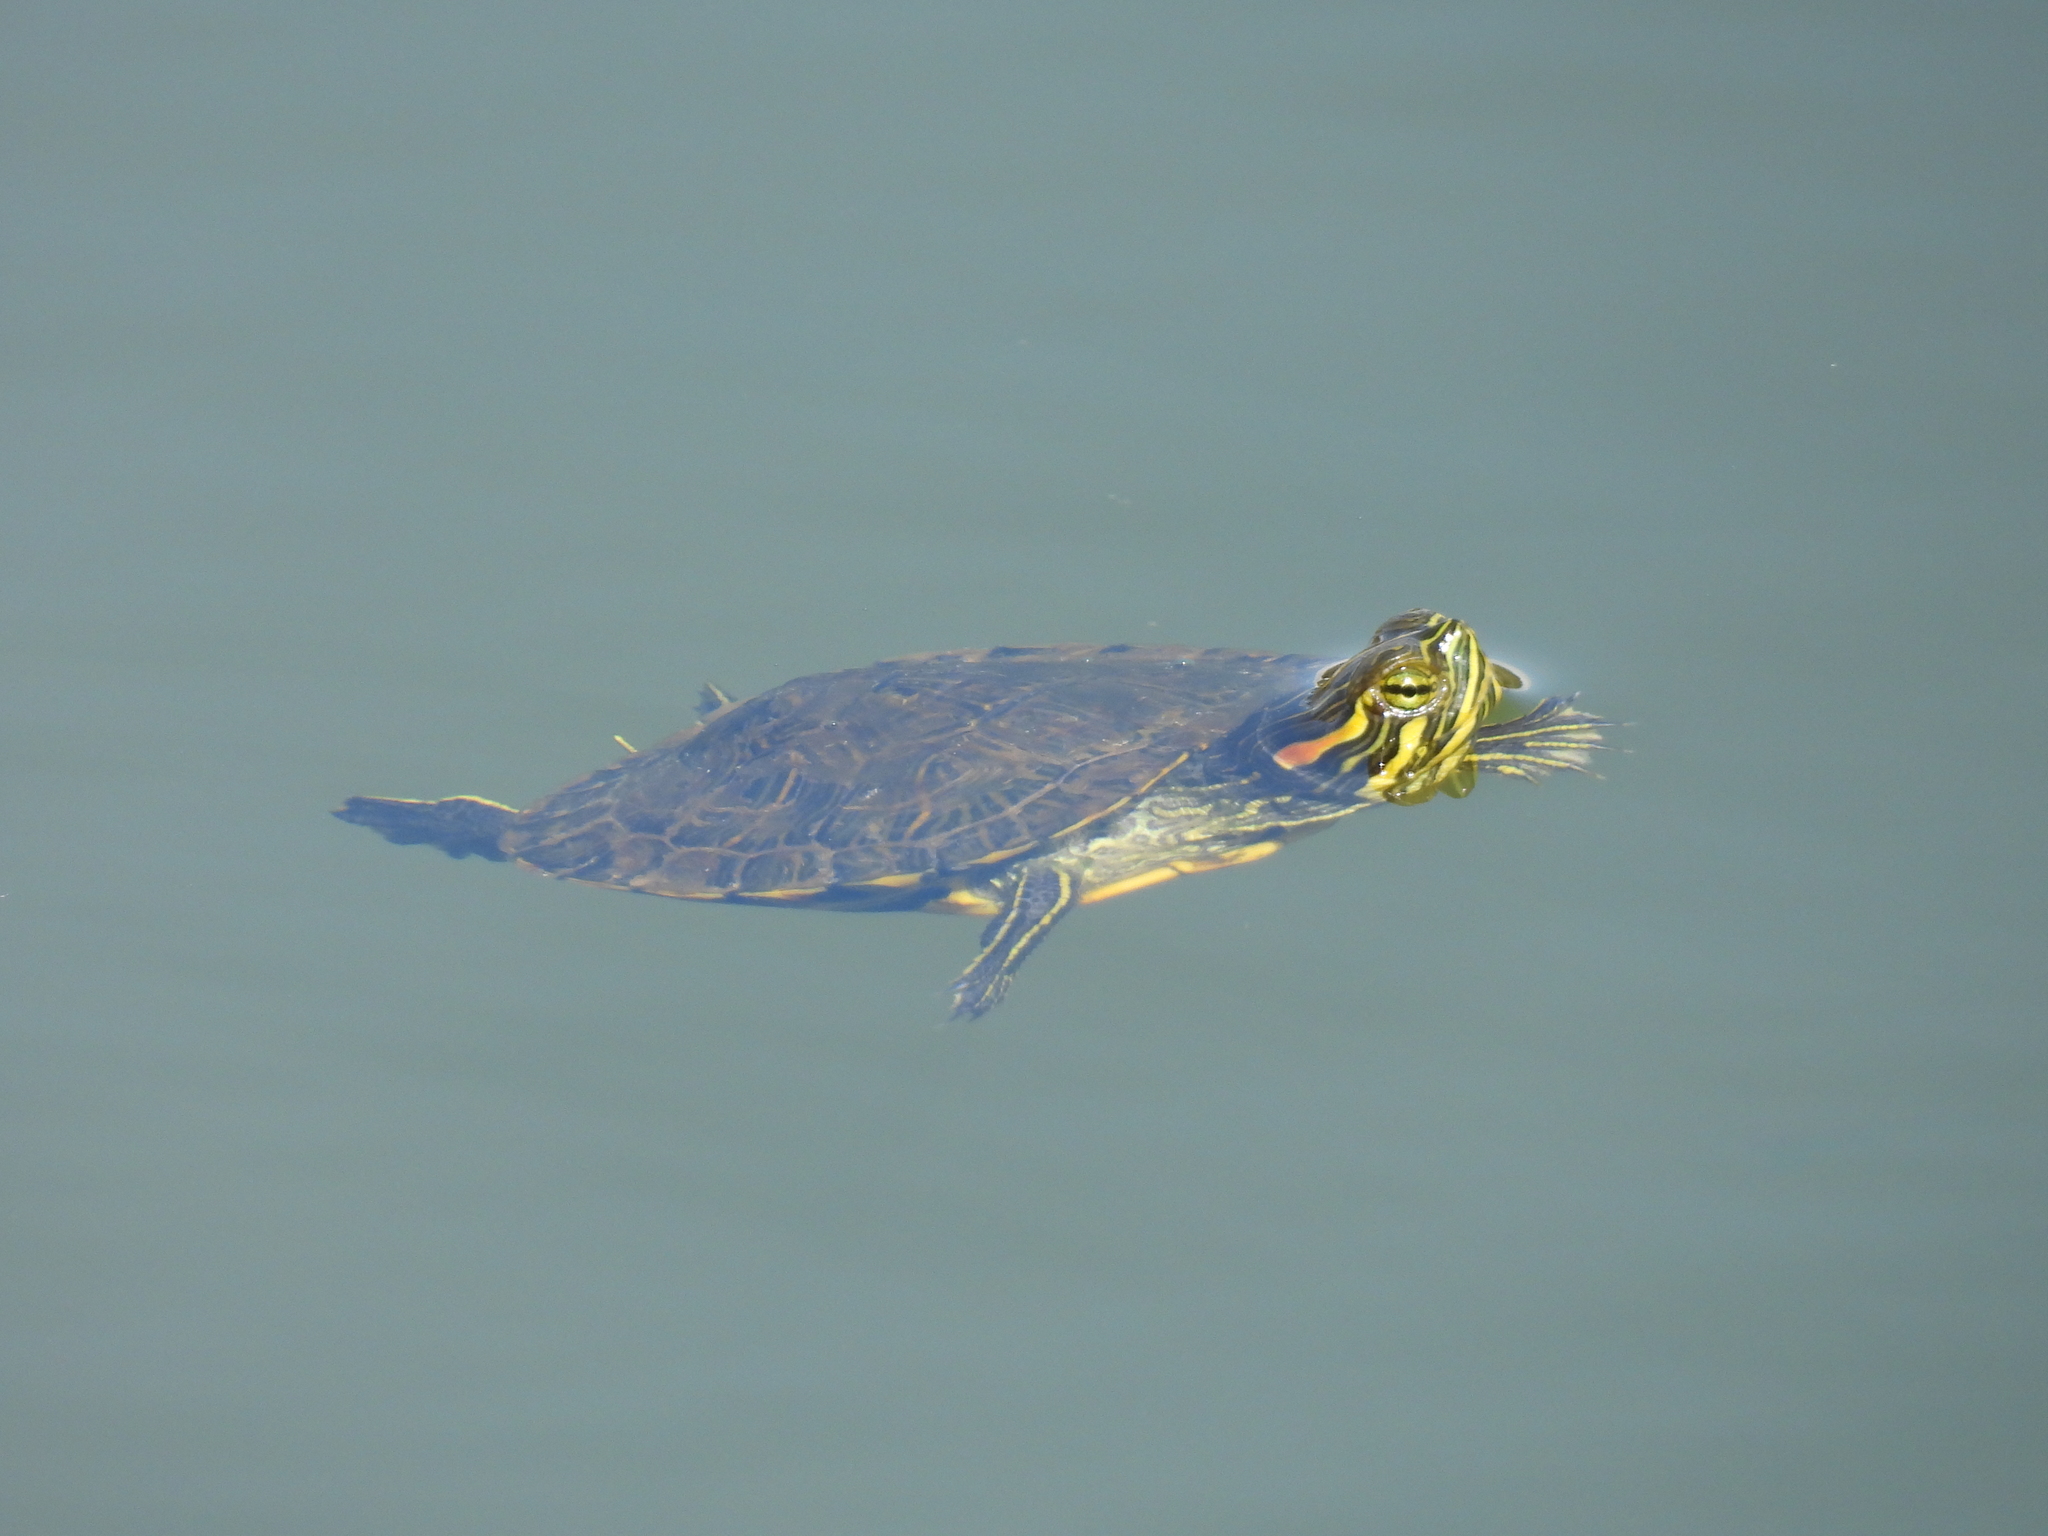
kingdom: Animalia
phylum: Chordata
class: Testudines
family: Emydidae
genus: Trachemys
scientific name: Trachemys scripta
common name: Slider
